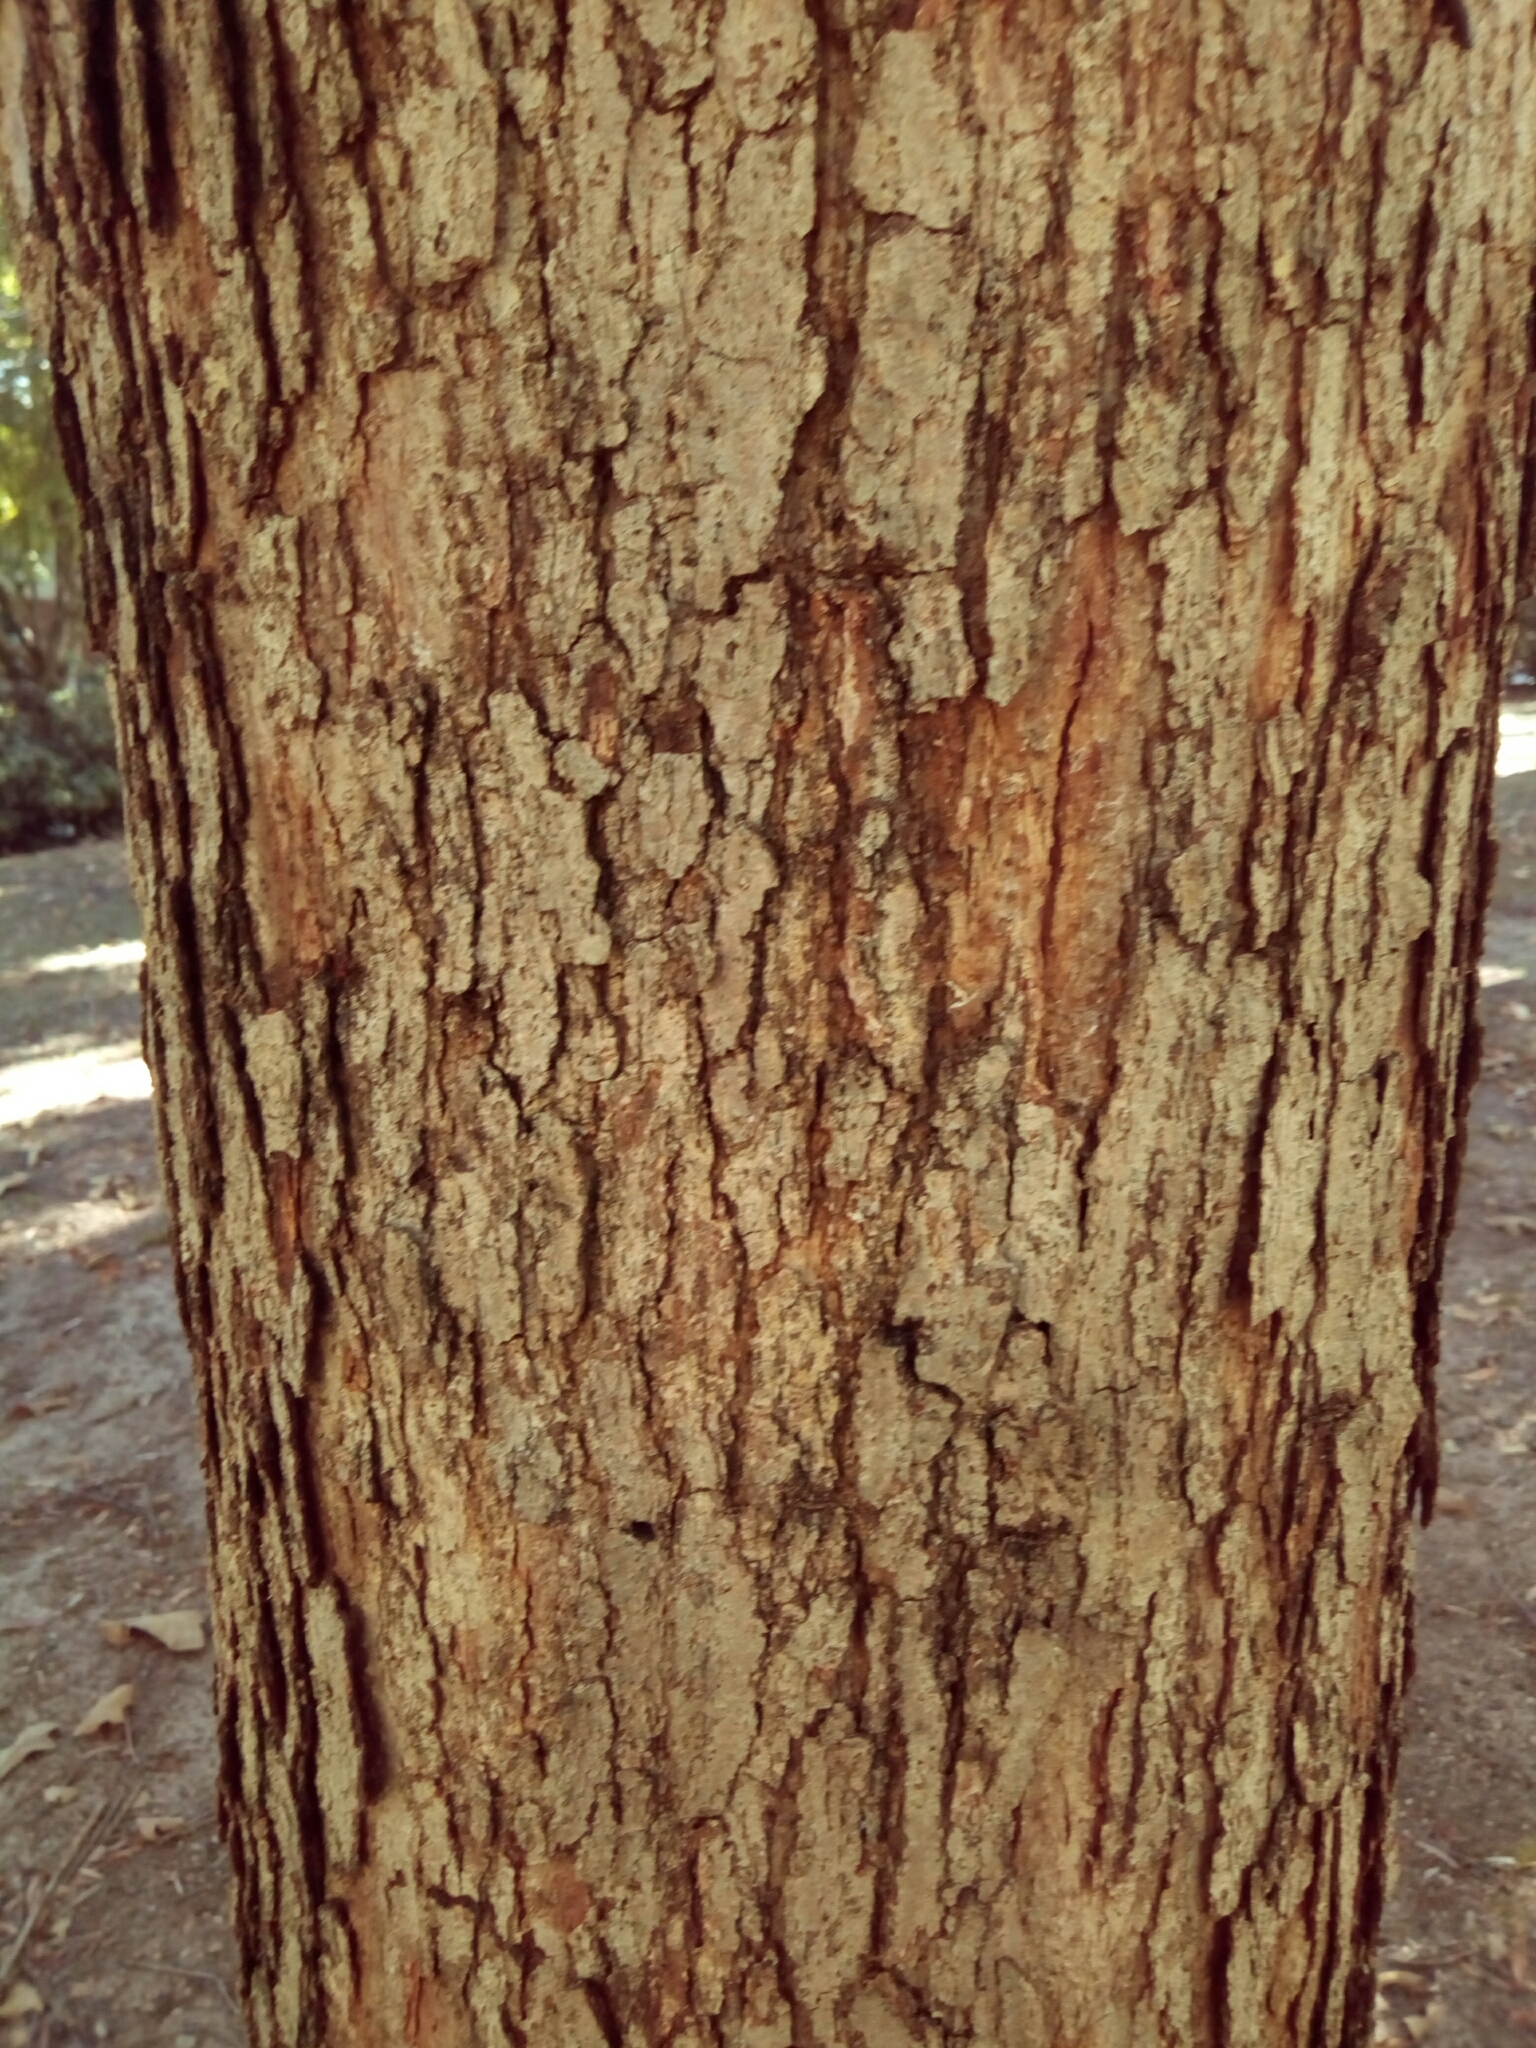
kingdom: Plantae
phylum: Tracheophyta
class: Magnoliopsida
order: Fagales
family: Fagaceae
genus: Quercus
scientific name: Quercus alba
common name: White oak
